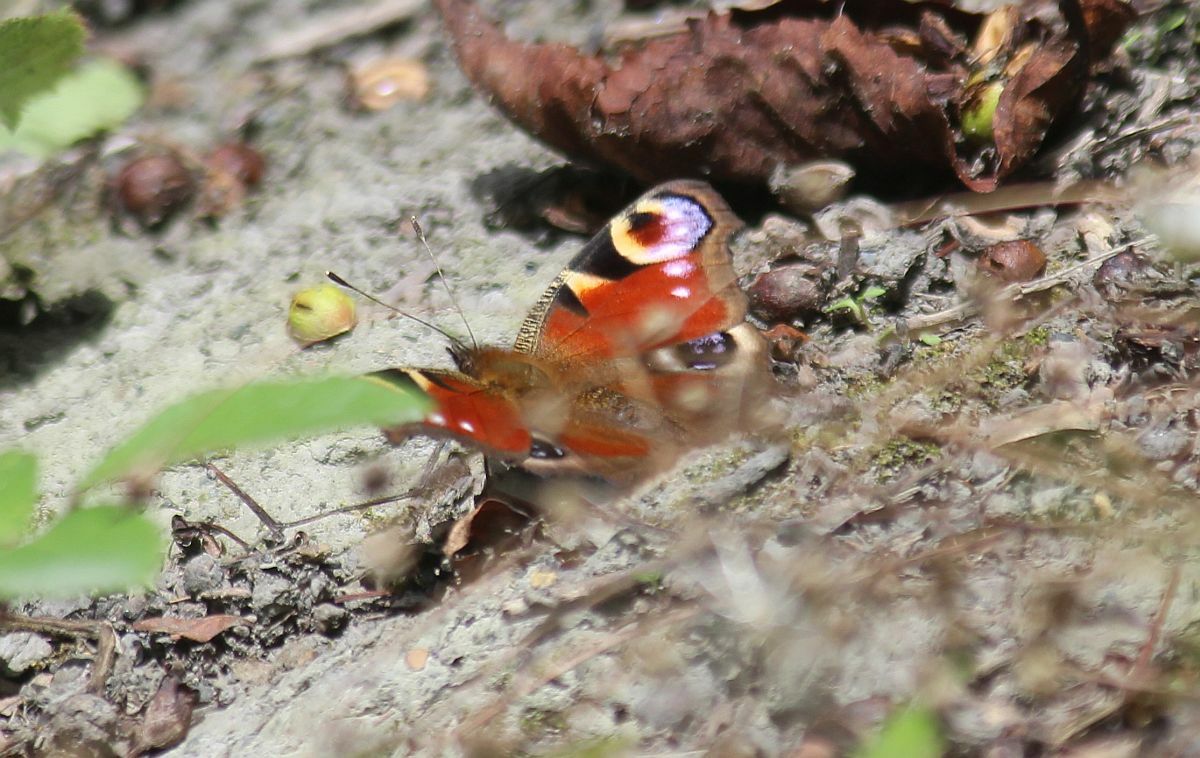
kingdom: Animalia
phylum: Arthropoda
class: Insecta
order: Lepidoptera
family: Nymphalidae
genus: Aglais
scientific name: Aglais io
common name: Peacock
